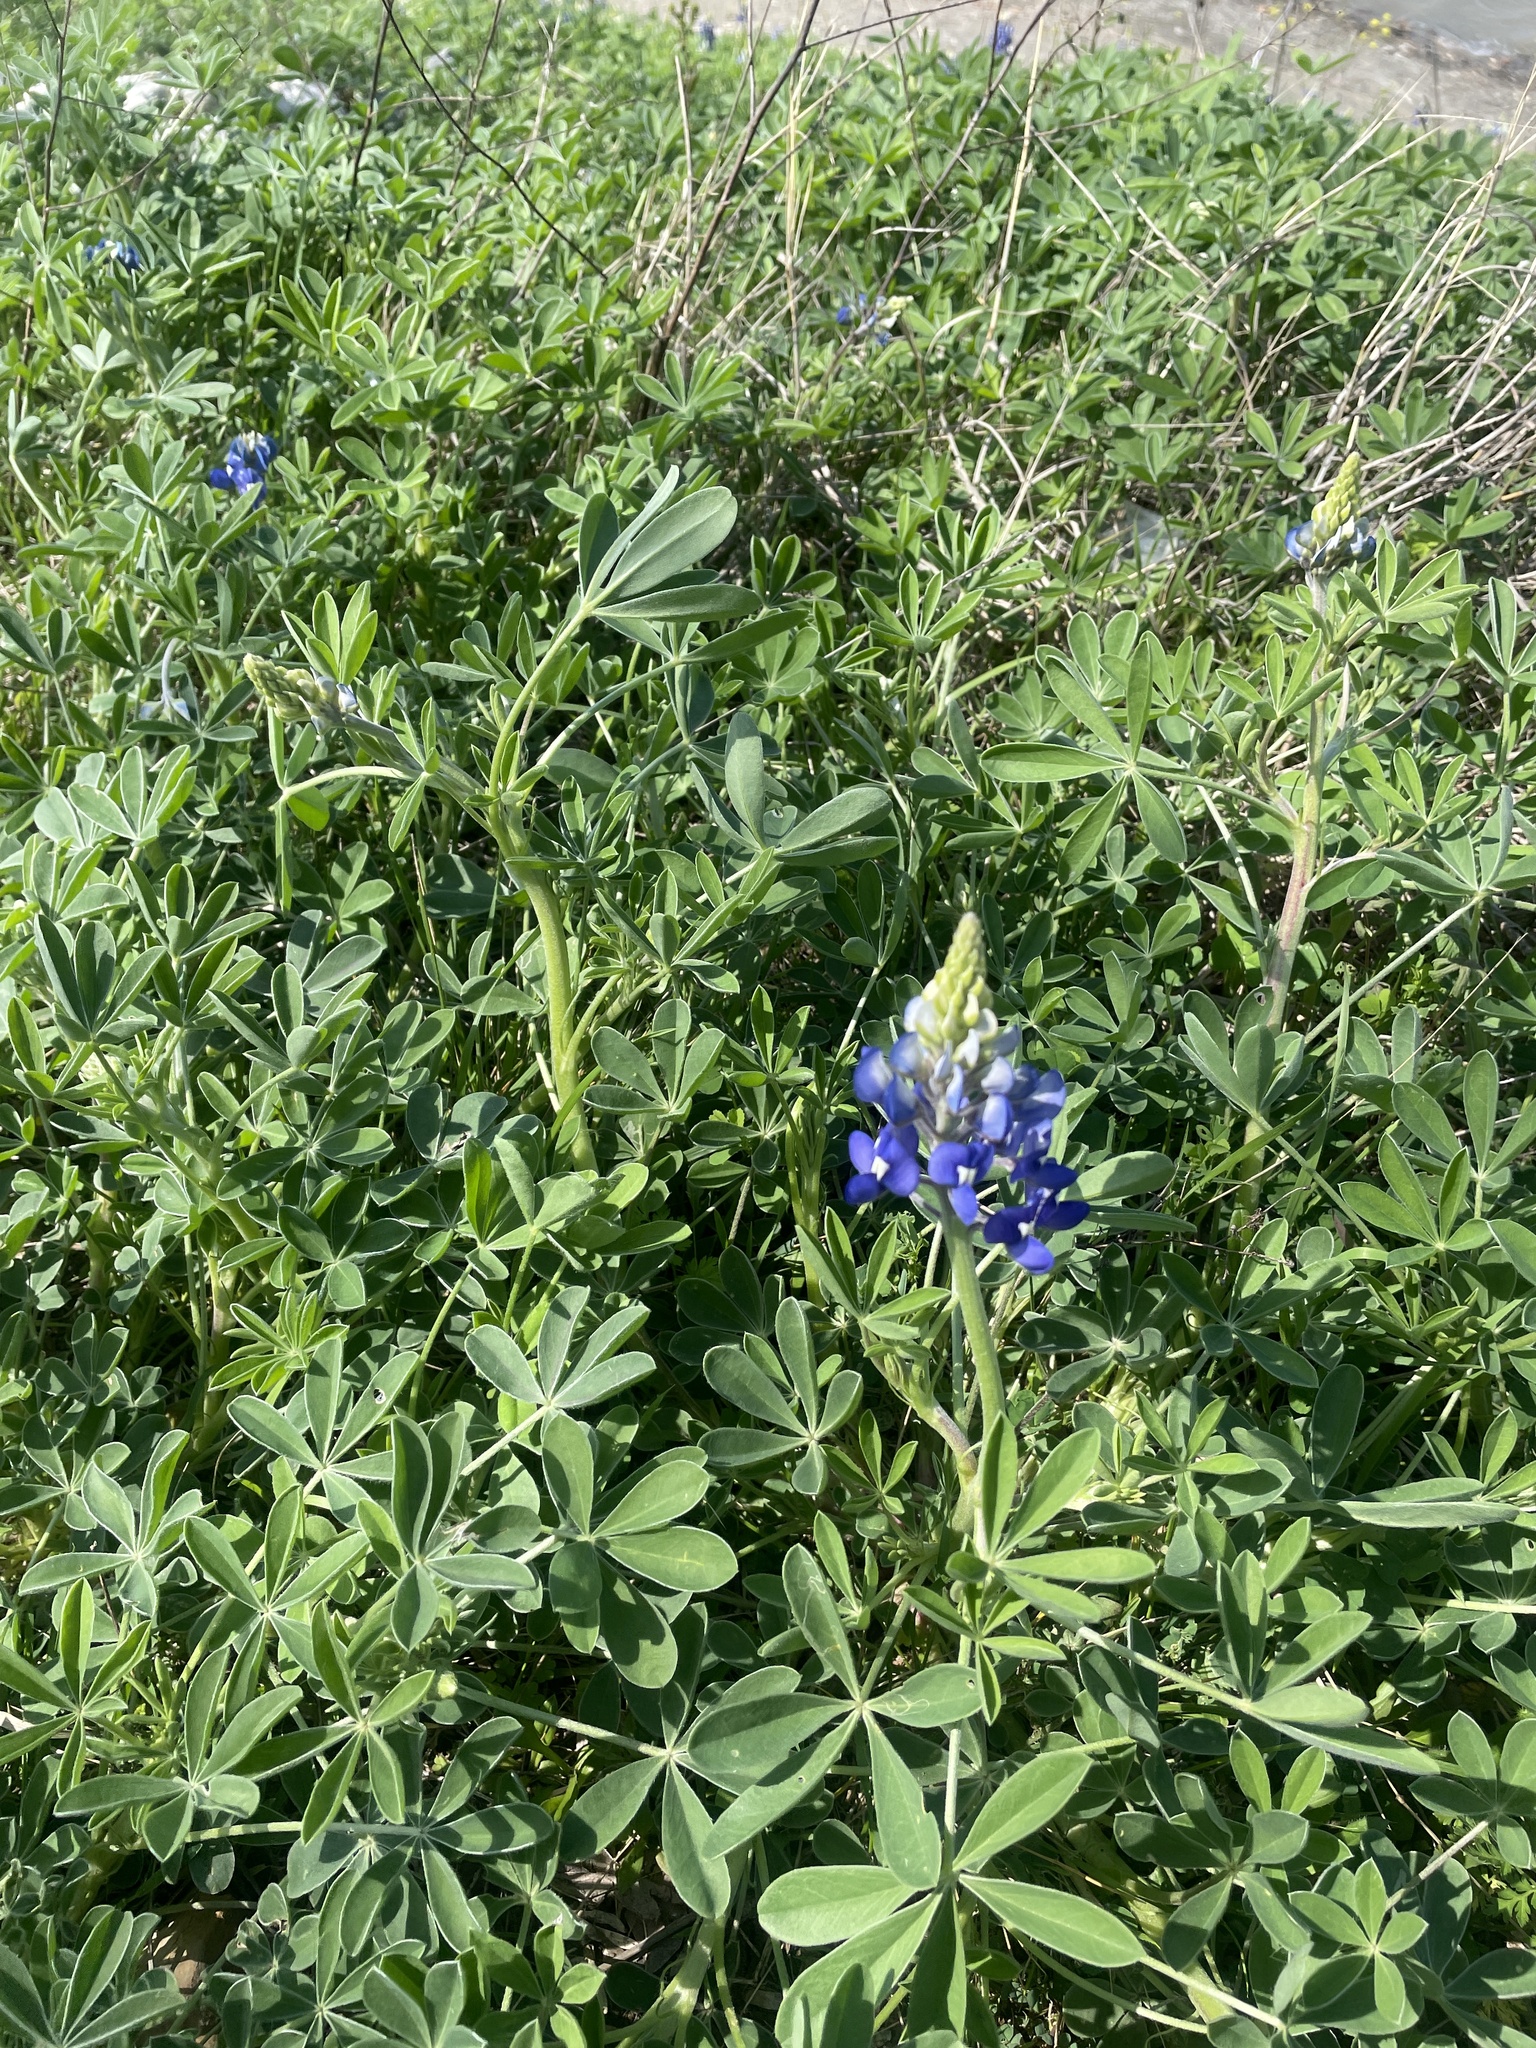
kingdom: Plantae
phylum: Tracheophyta
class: Magnoliopsida
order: Fabales
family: Fabaceae
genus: Lupinus
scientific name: Lupinus texensis
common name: Texas bluebonnet
